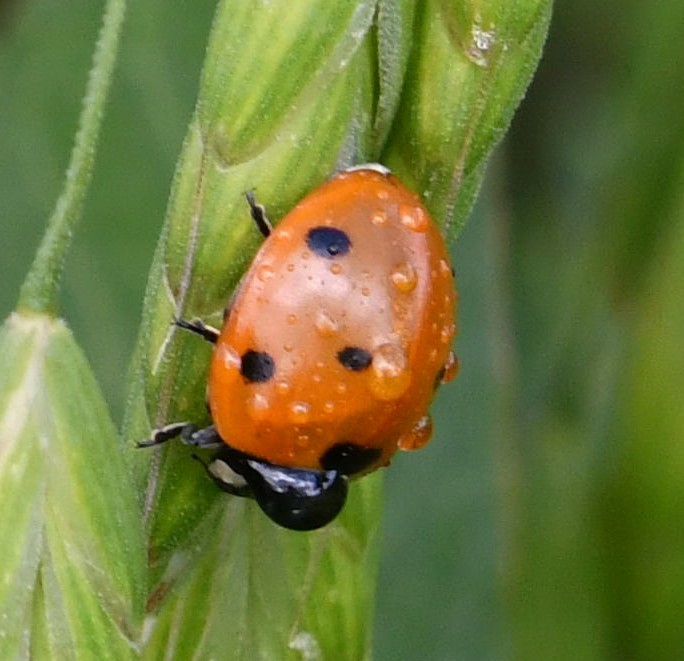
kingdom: Animalia
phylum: Arthropoda
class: Insecta
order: Coleoptera
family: Coccinellidae
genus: Coccinella
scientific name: Coccinella septempunctata
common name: Sevenspotted lady beetle
